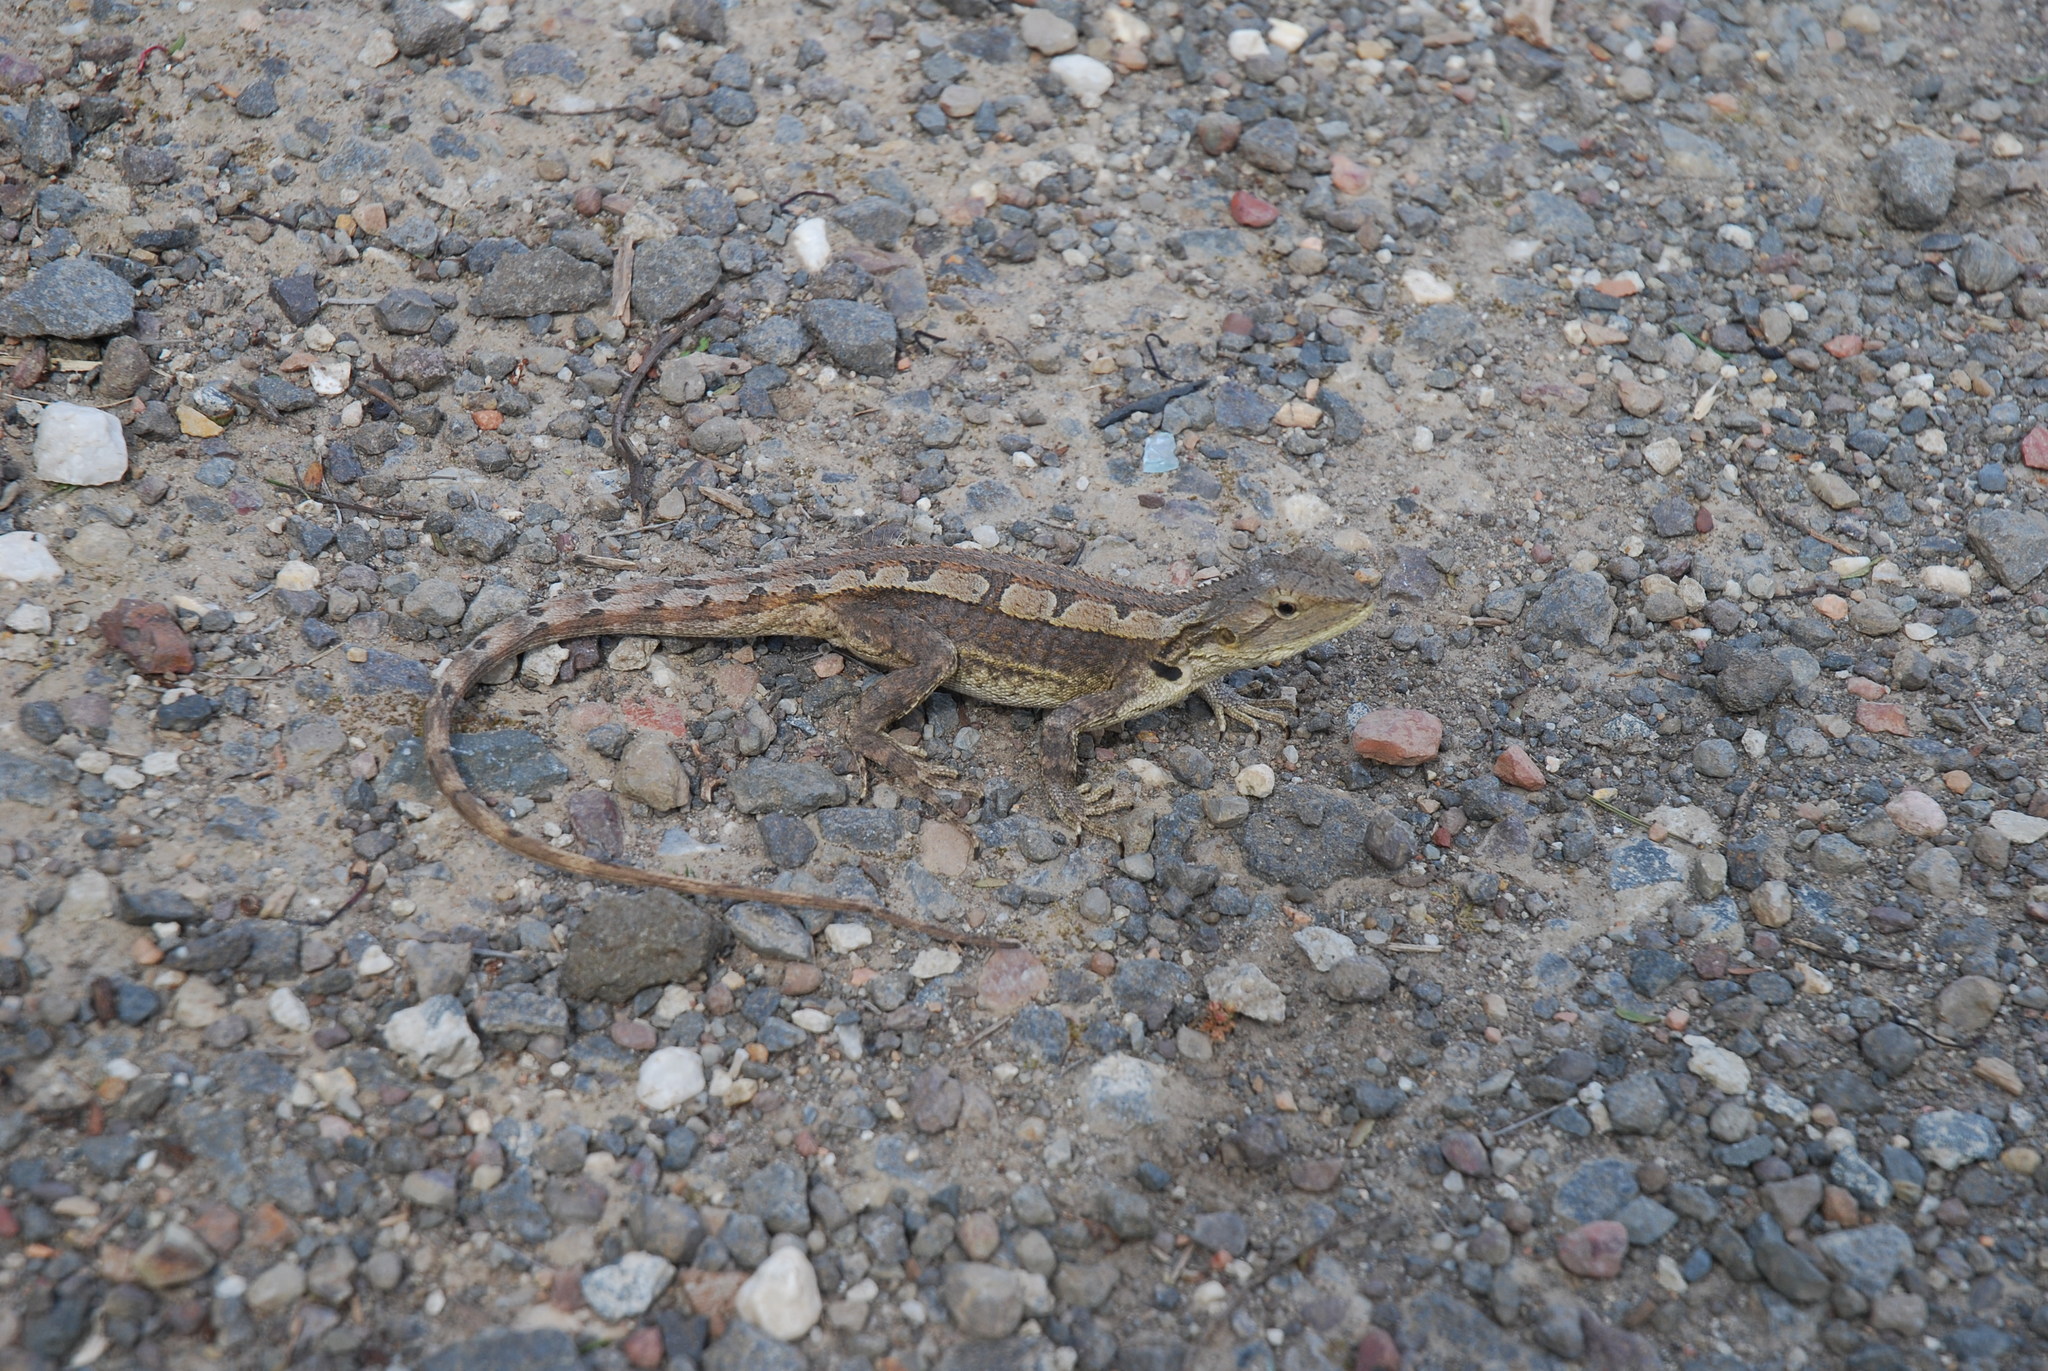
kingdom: Animalia
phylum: Chordata
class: Squamata
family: Agamidae
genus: Amphibolurus
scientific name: Amphibolurus muricatus
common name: Jacky lizard
